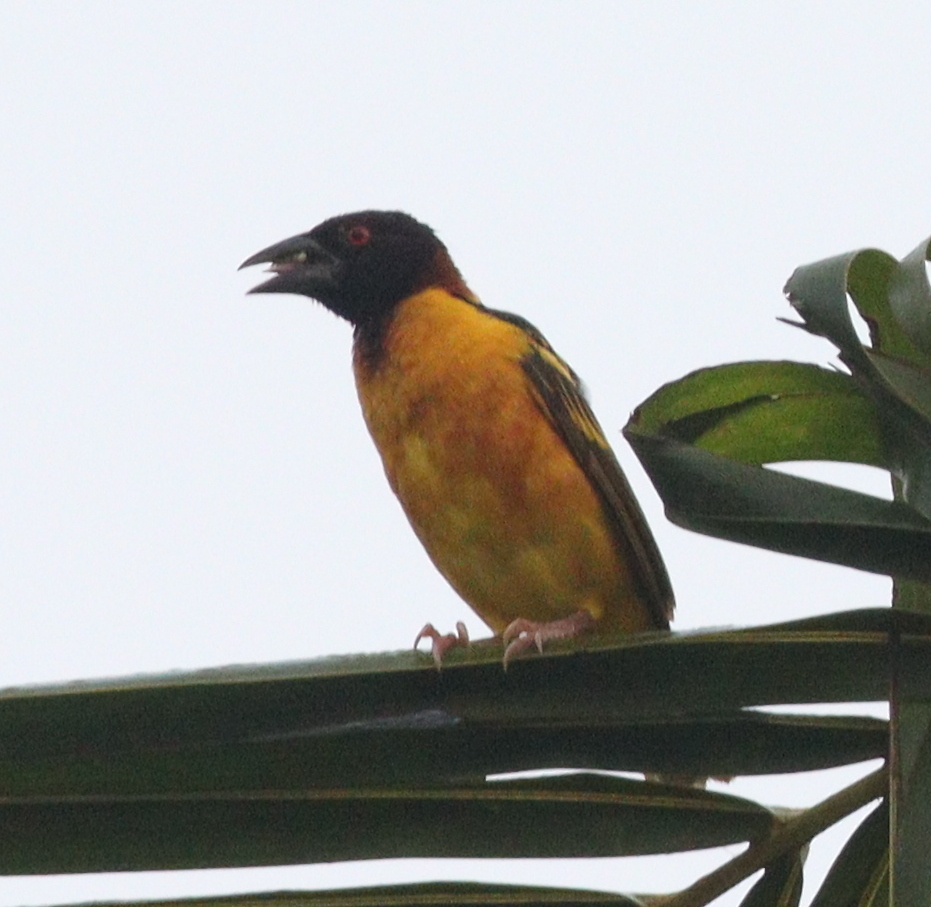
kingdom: Animalia
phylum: Chordata
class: Aves
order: Passeriformes
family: Ploceidae
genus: Ploceus
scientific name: Ploceus cucullatus
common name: Village weaver
